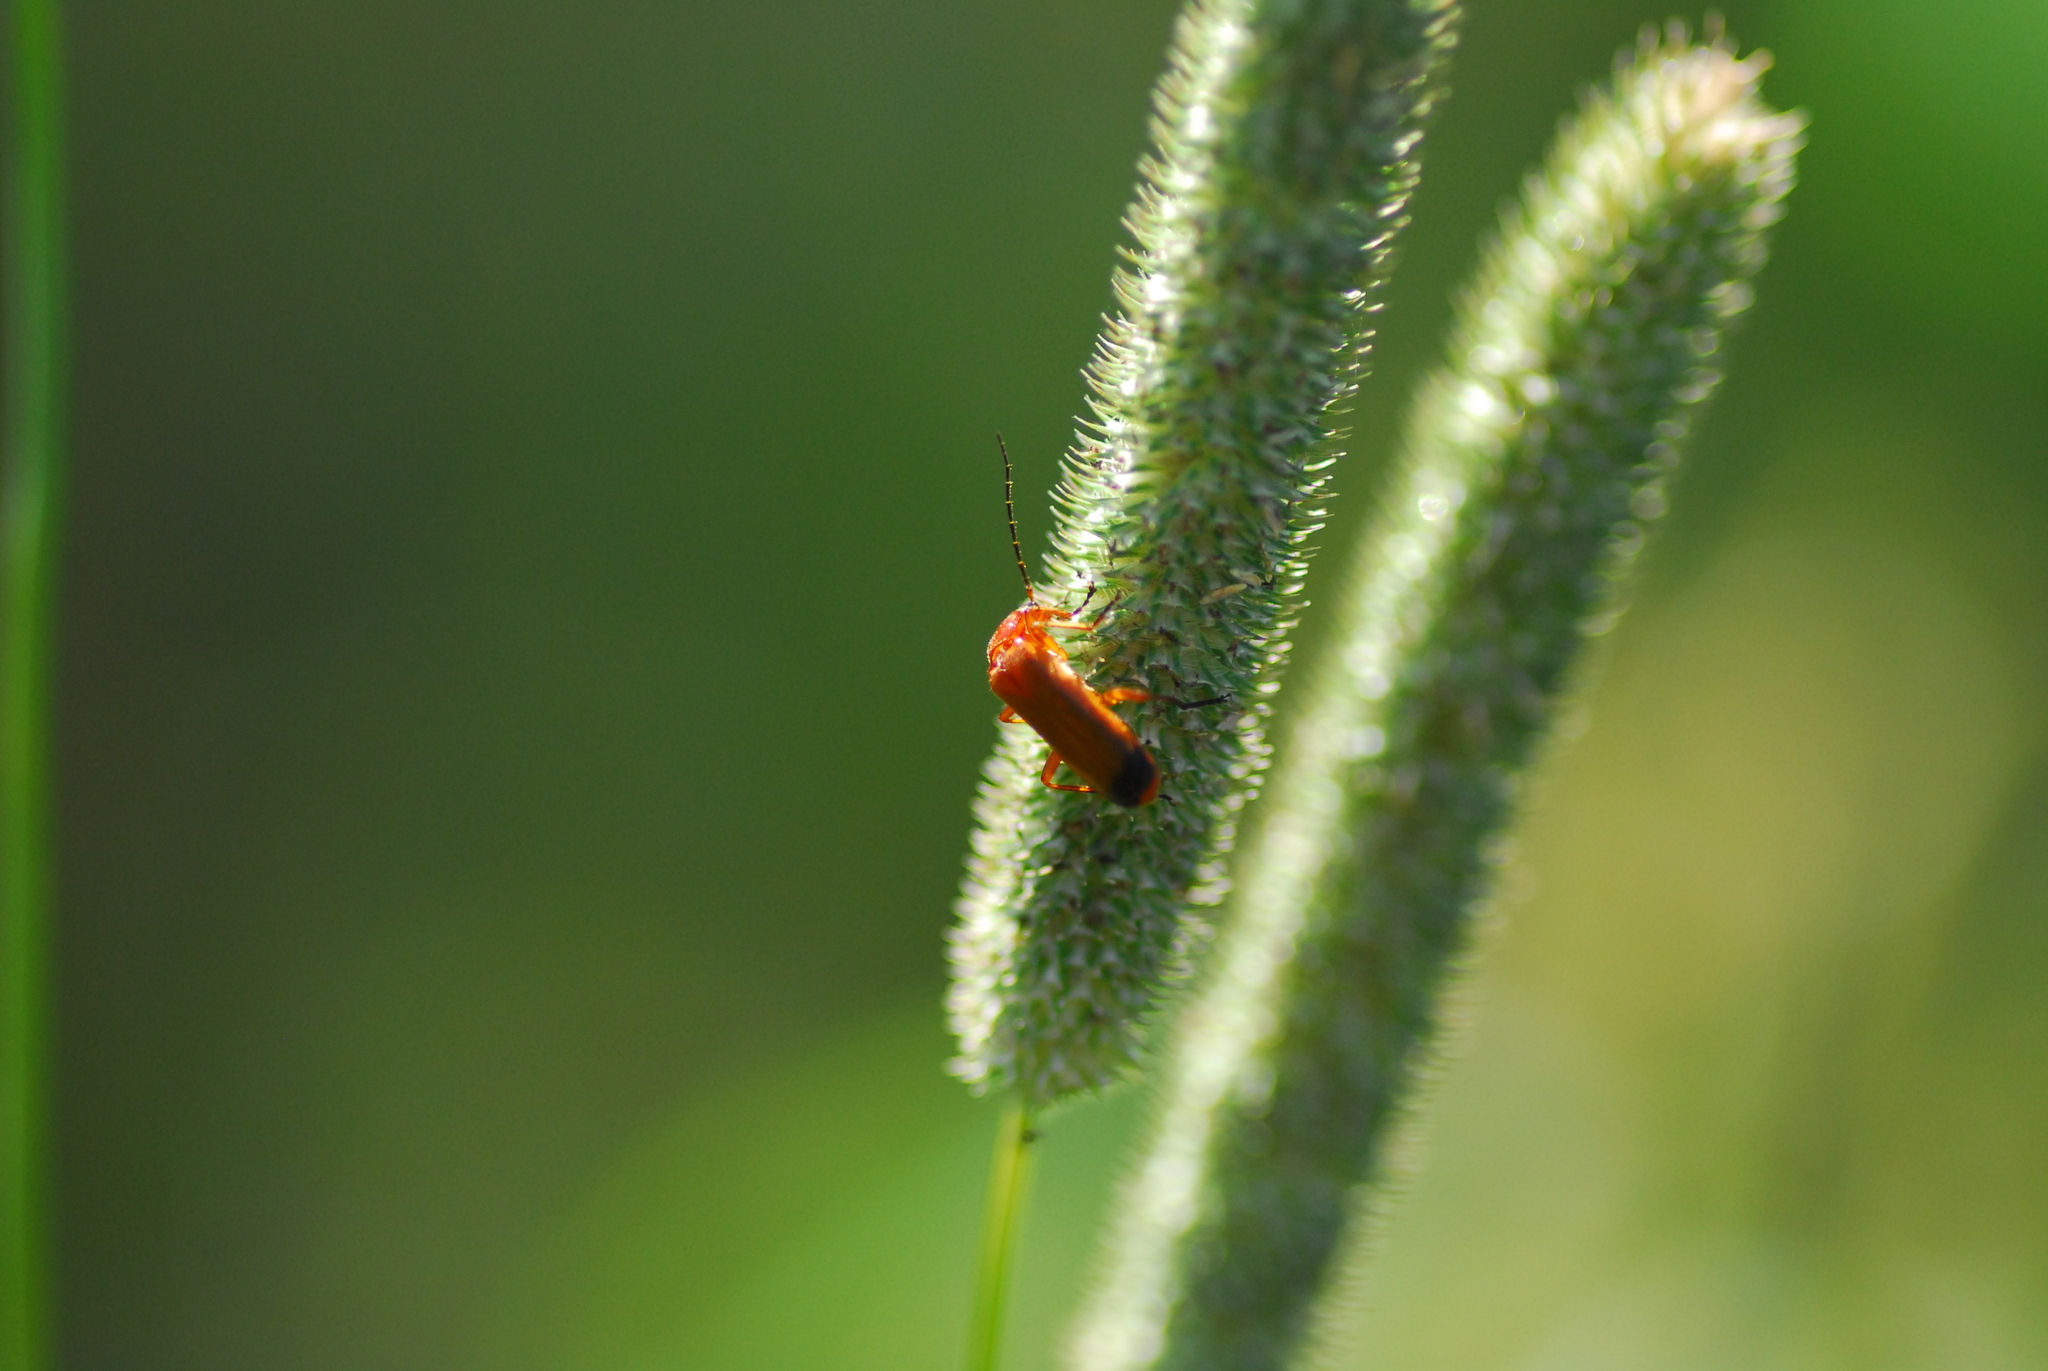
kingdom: Animalia
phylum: Arthropoda
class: Insecta
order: Coleoptera
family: Cantharidae
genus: Rhagonycha
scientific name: Rhagonycha fulva
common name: Common red soldier beetle
